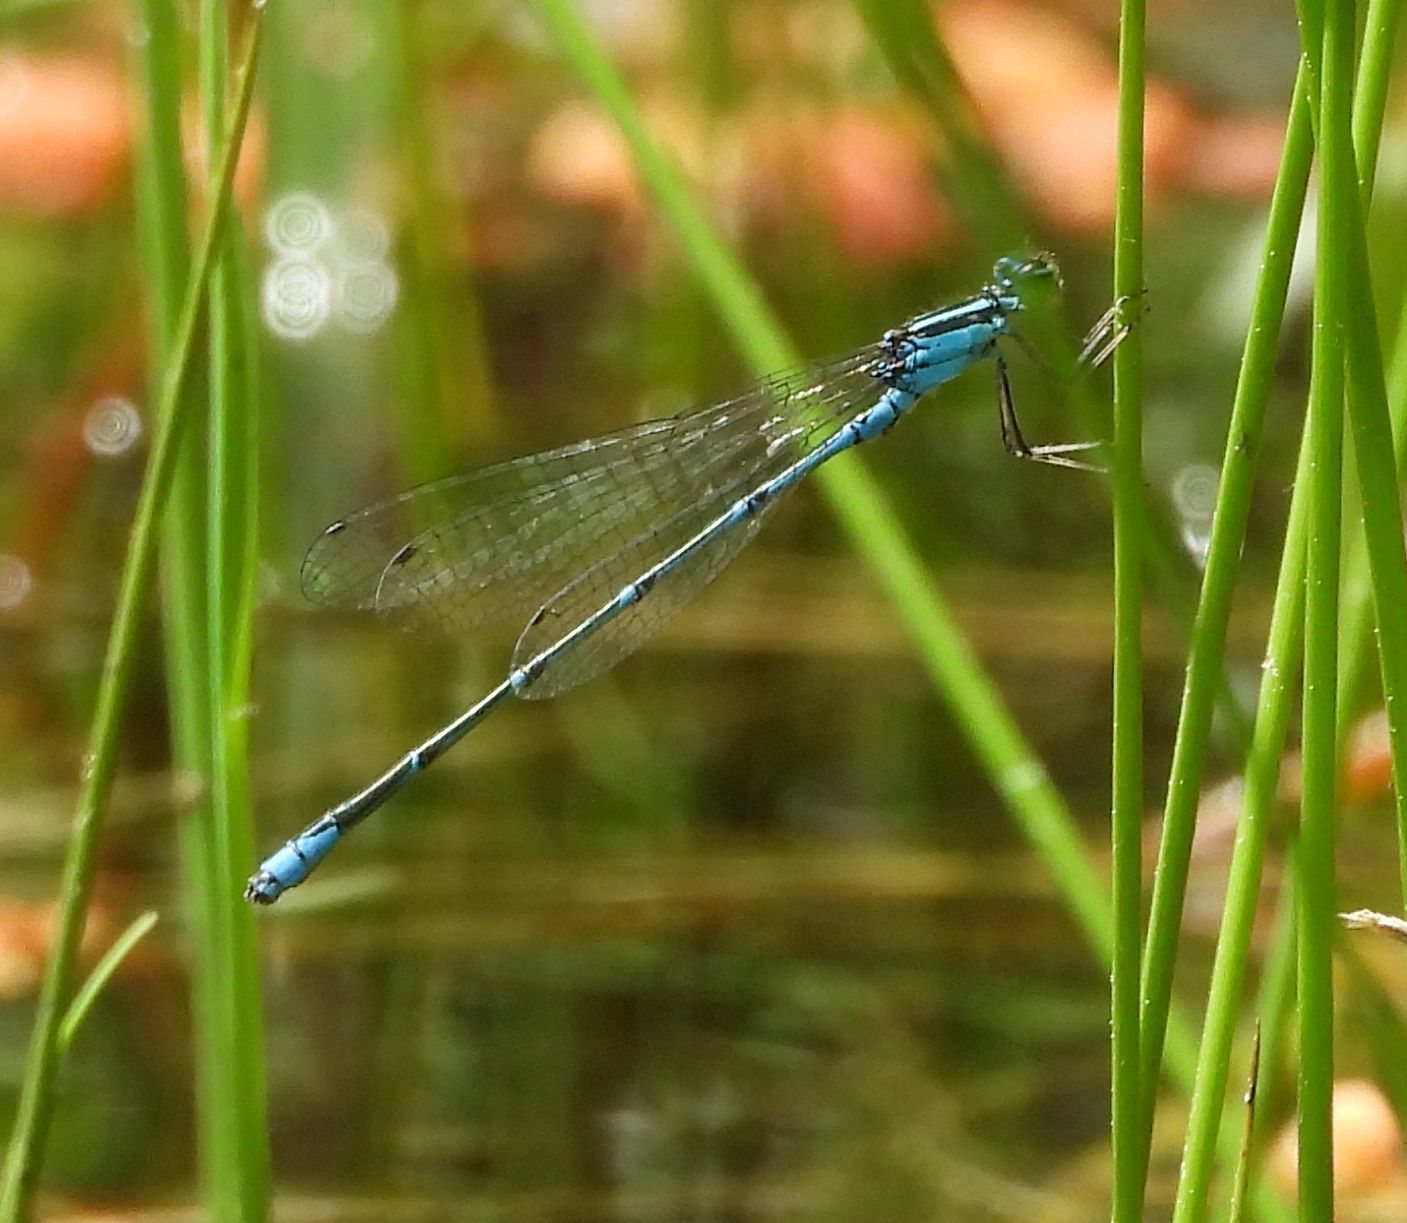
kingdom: Animalia
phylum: Arthropoda
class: Insecta
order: Odonata
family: Coenagrionidae
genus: Enallagma
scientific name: Enallagma exsulans
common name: Stream bluet
